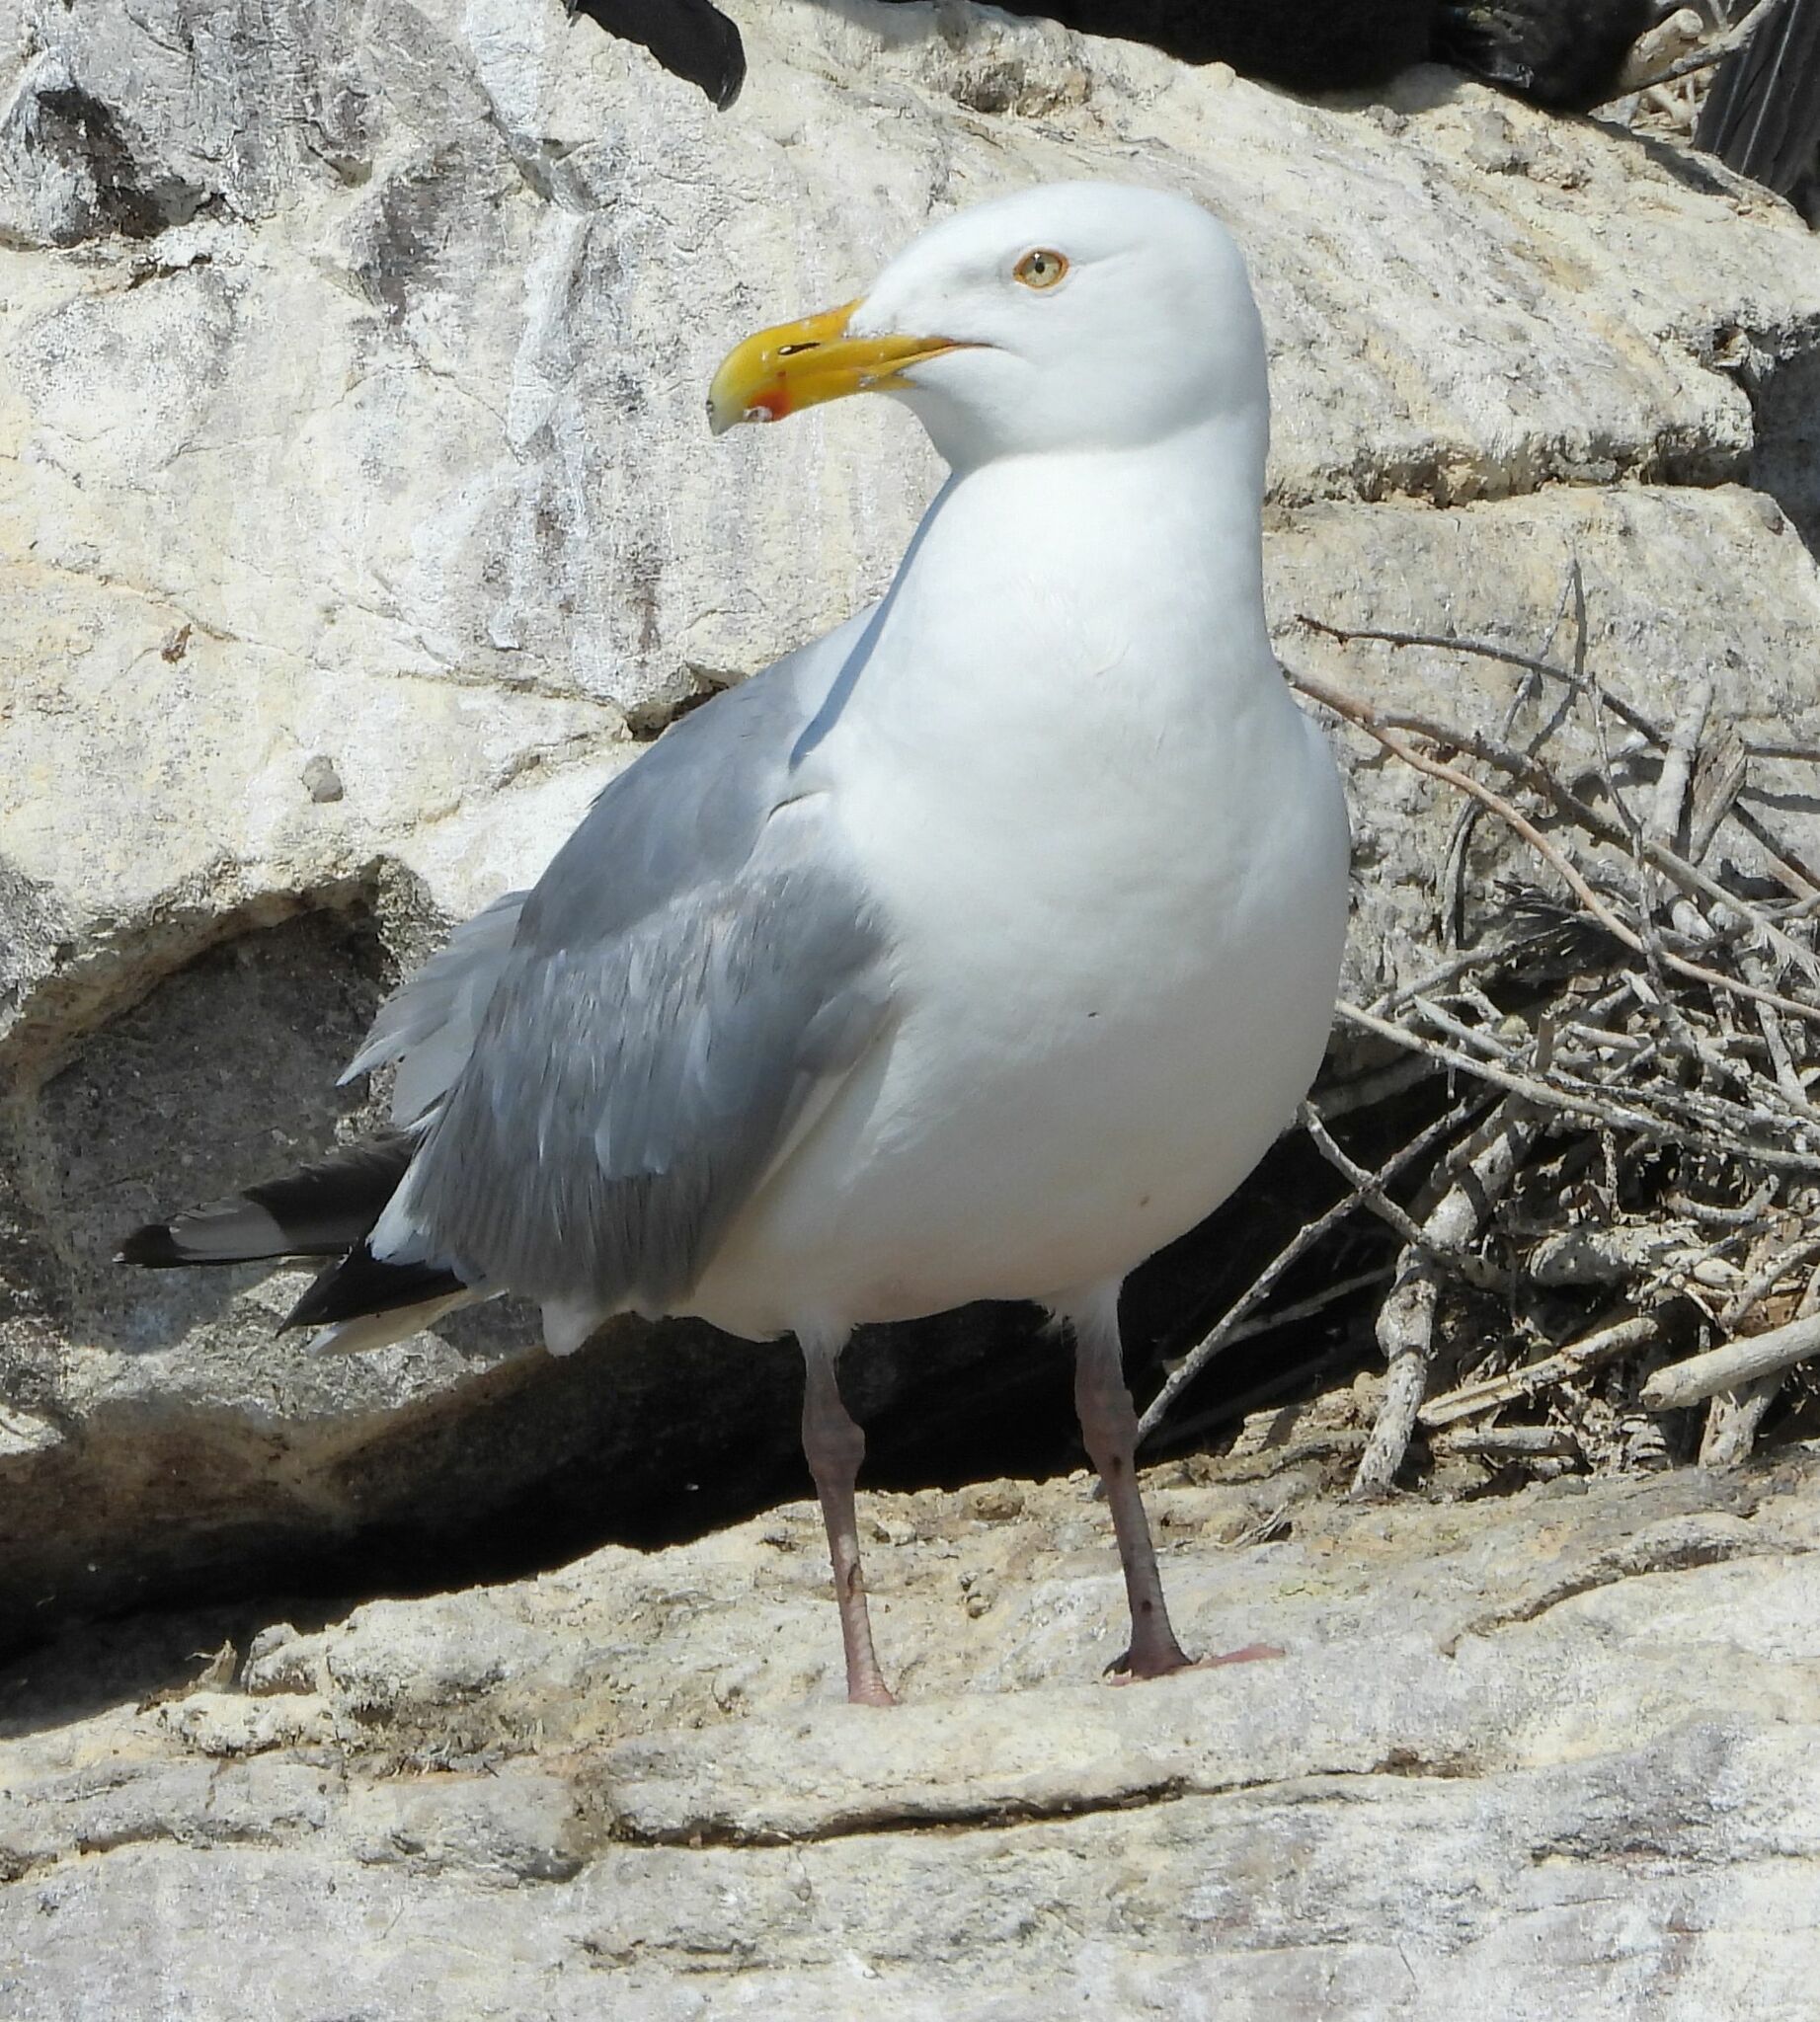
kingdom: Animalia
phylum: Chordata
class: Aves
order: Charadriiformes
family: Laridae
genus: Larus
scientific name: Larus argentatus
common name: Herring gull
